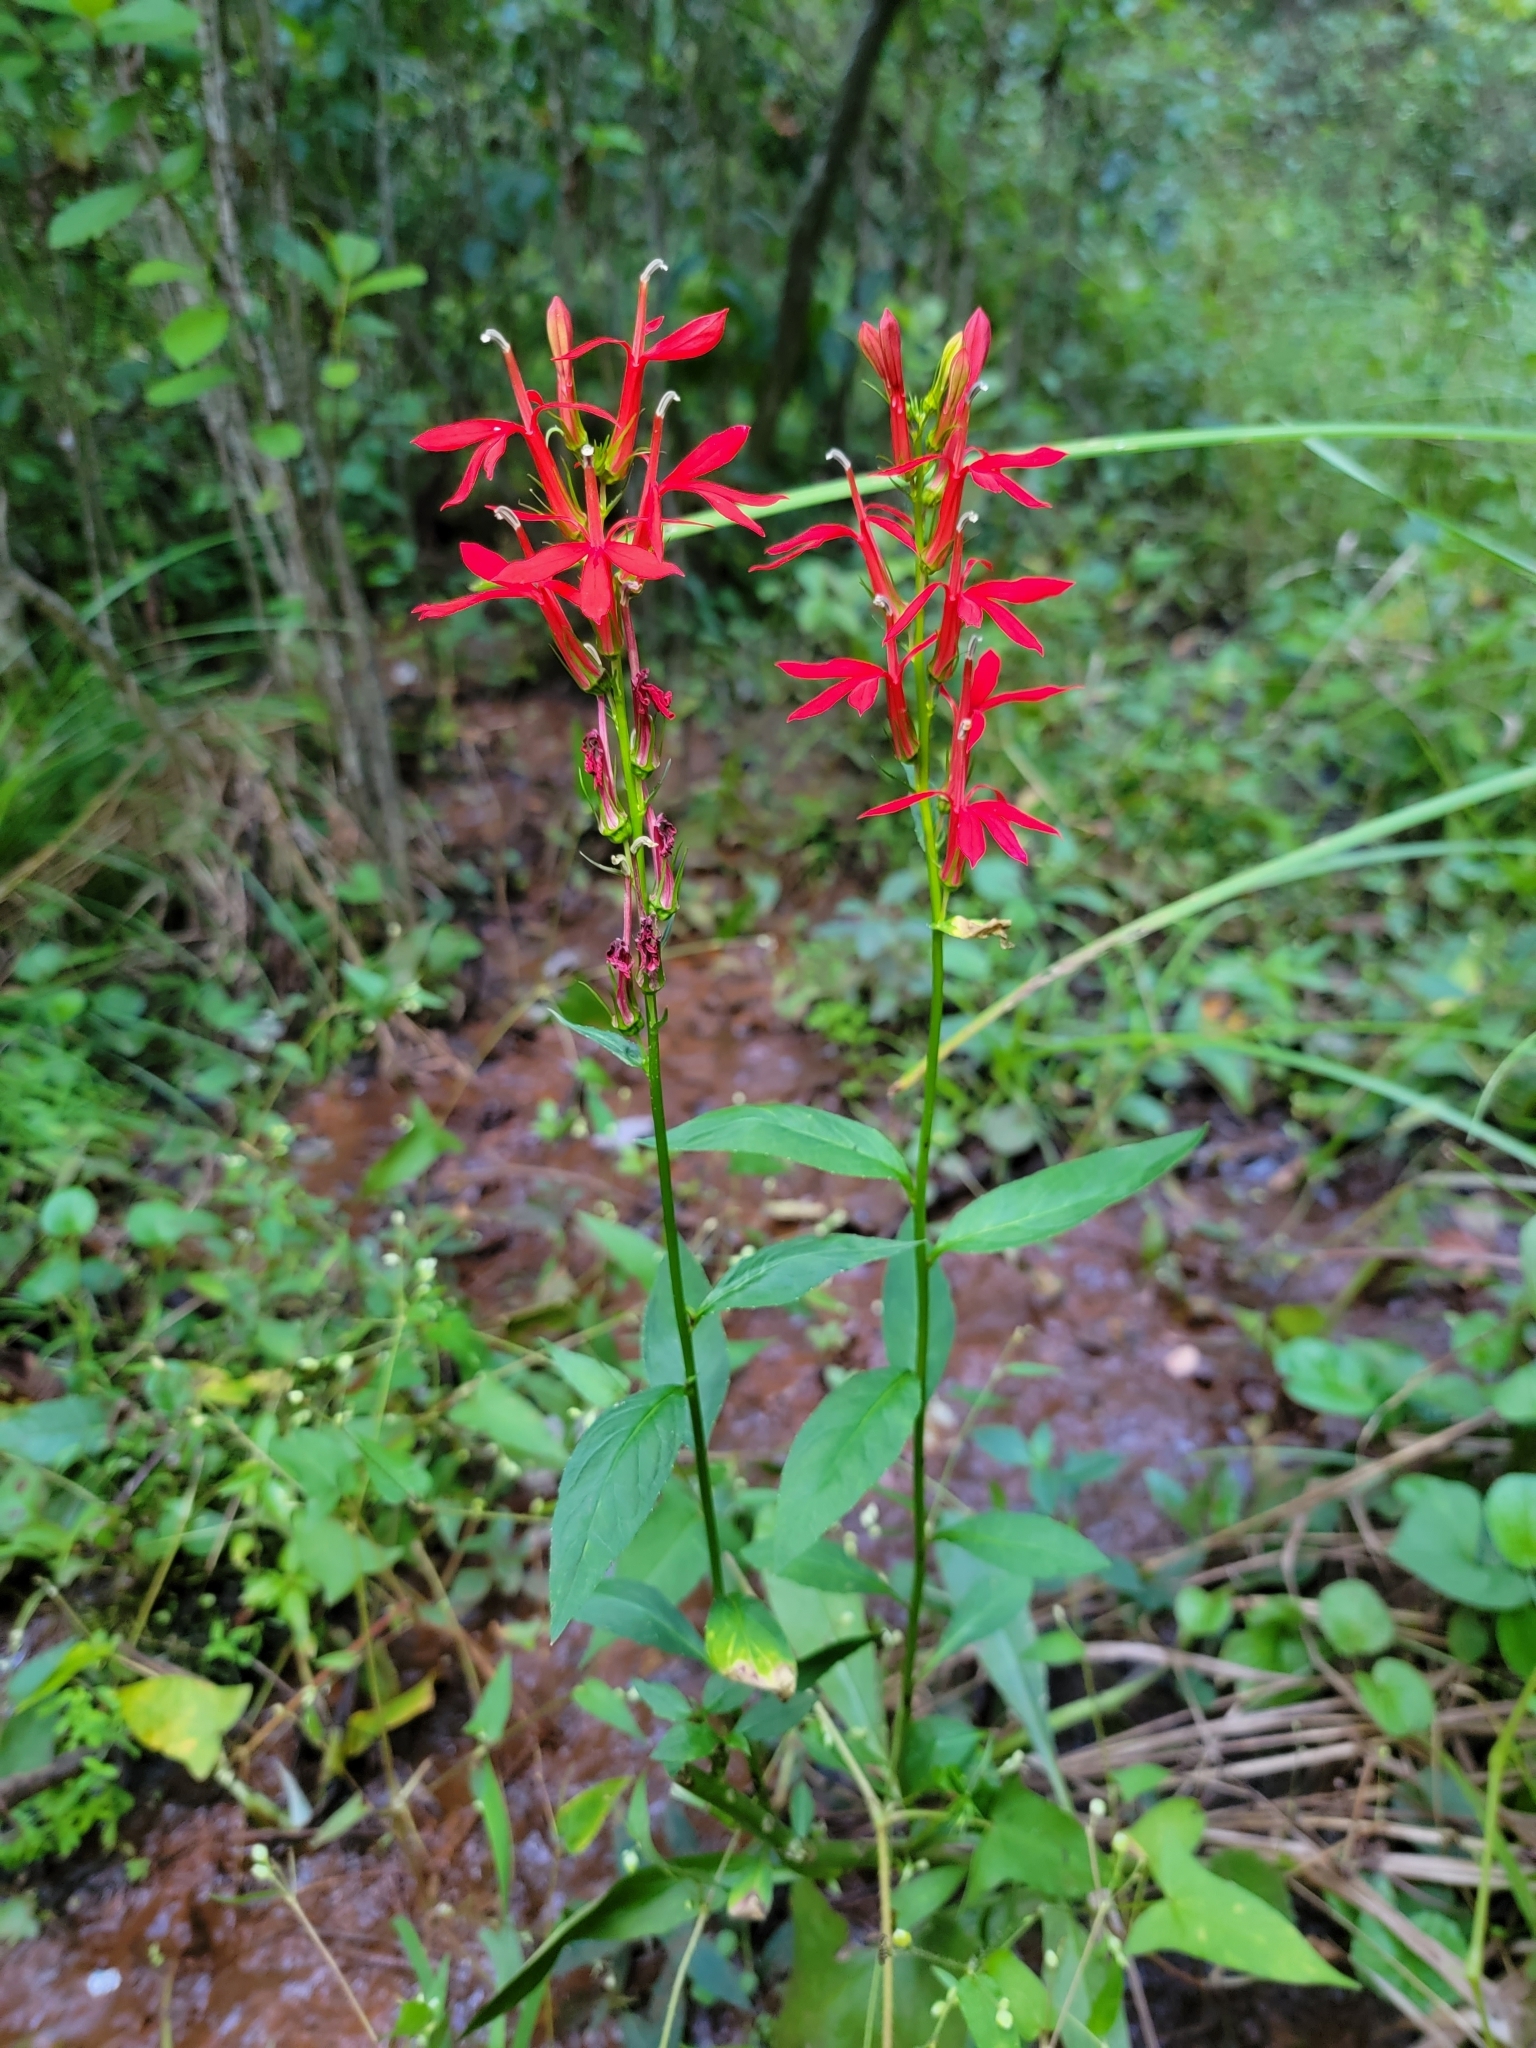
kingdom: Plantae
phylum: Tracheophyta
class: Magnoliopsida
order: Asterales
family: Campanulaceae
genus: Lobelia
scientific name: Lobelia cardinalis
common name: Cardinal flower
